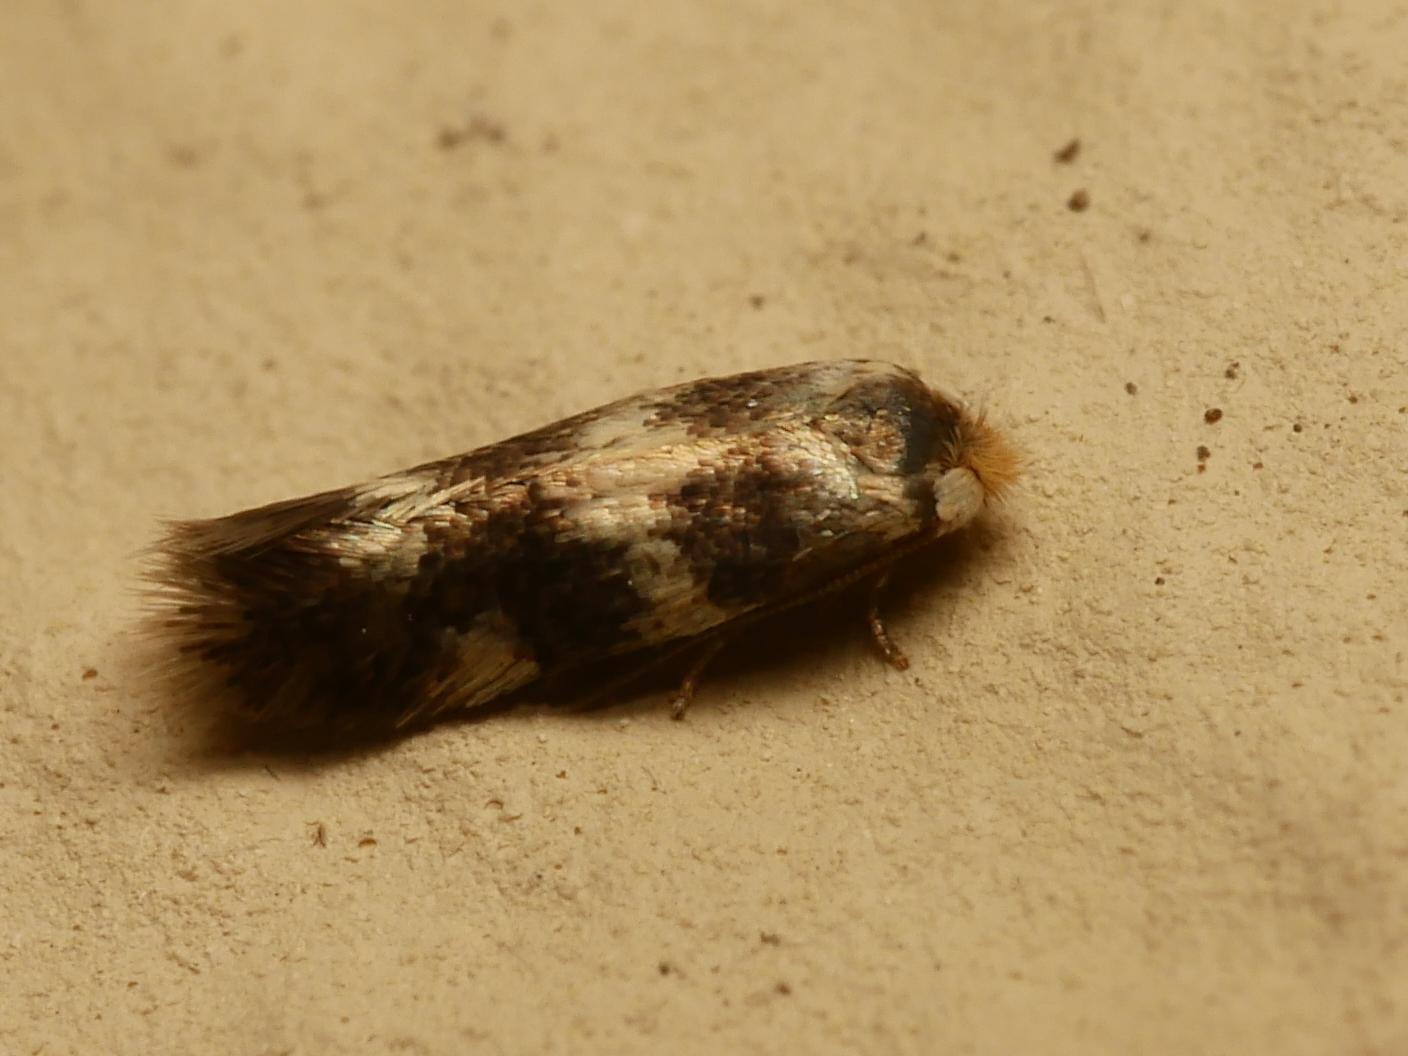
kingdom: Animalia
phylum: Arthropoda
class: Insecta
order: Lepidoptera
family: Nepticulidae
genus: Etainia
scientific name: Etainia sericopeza
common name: Leafminer
